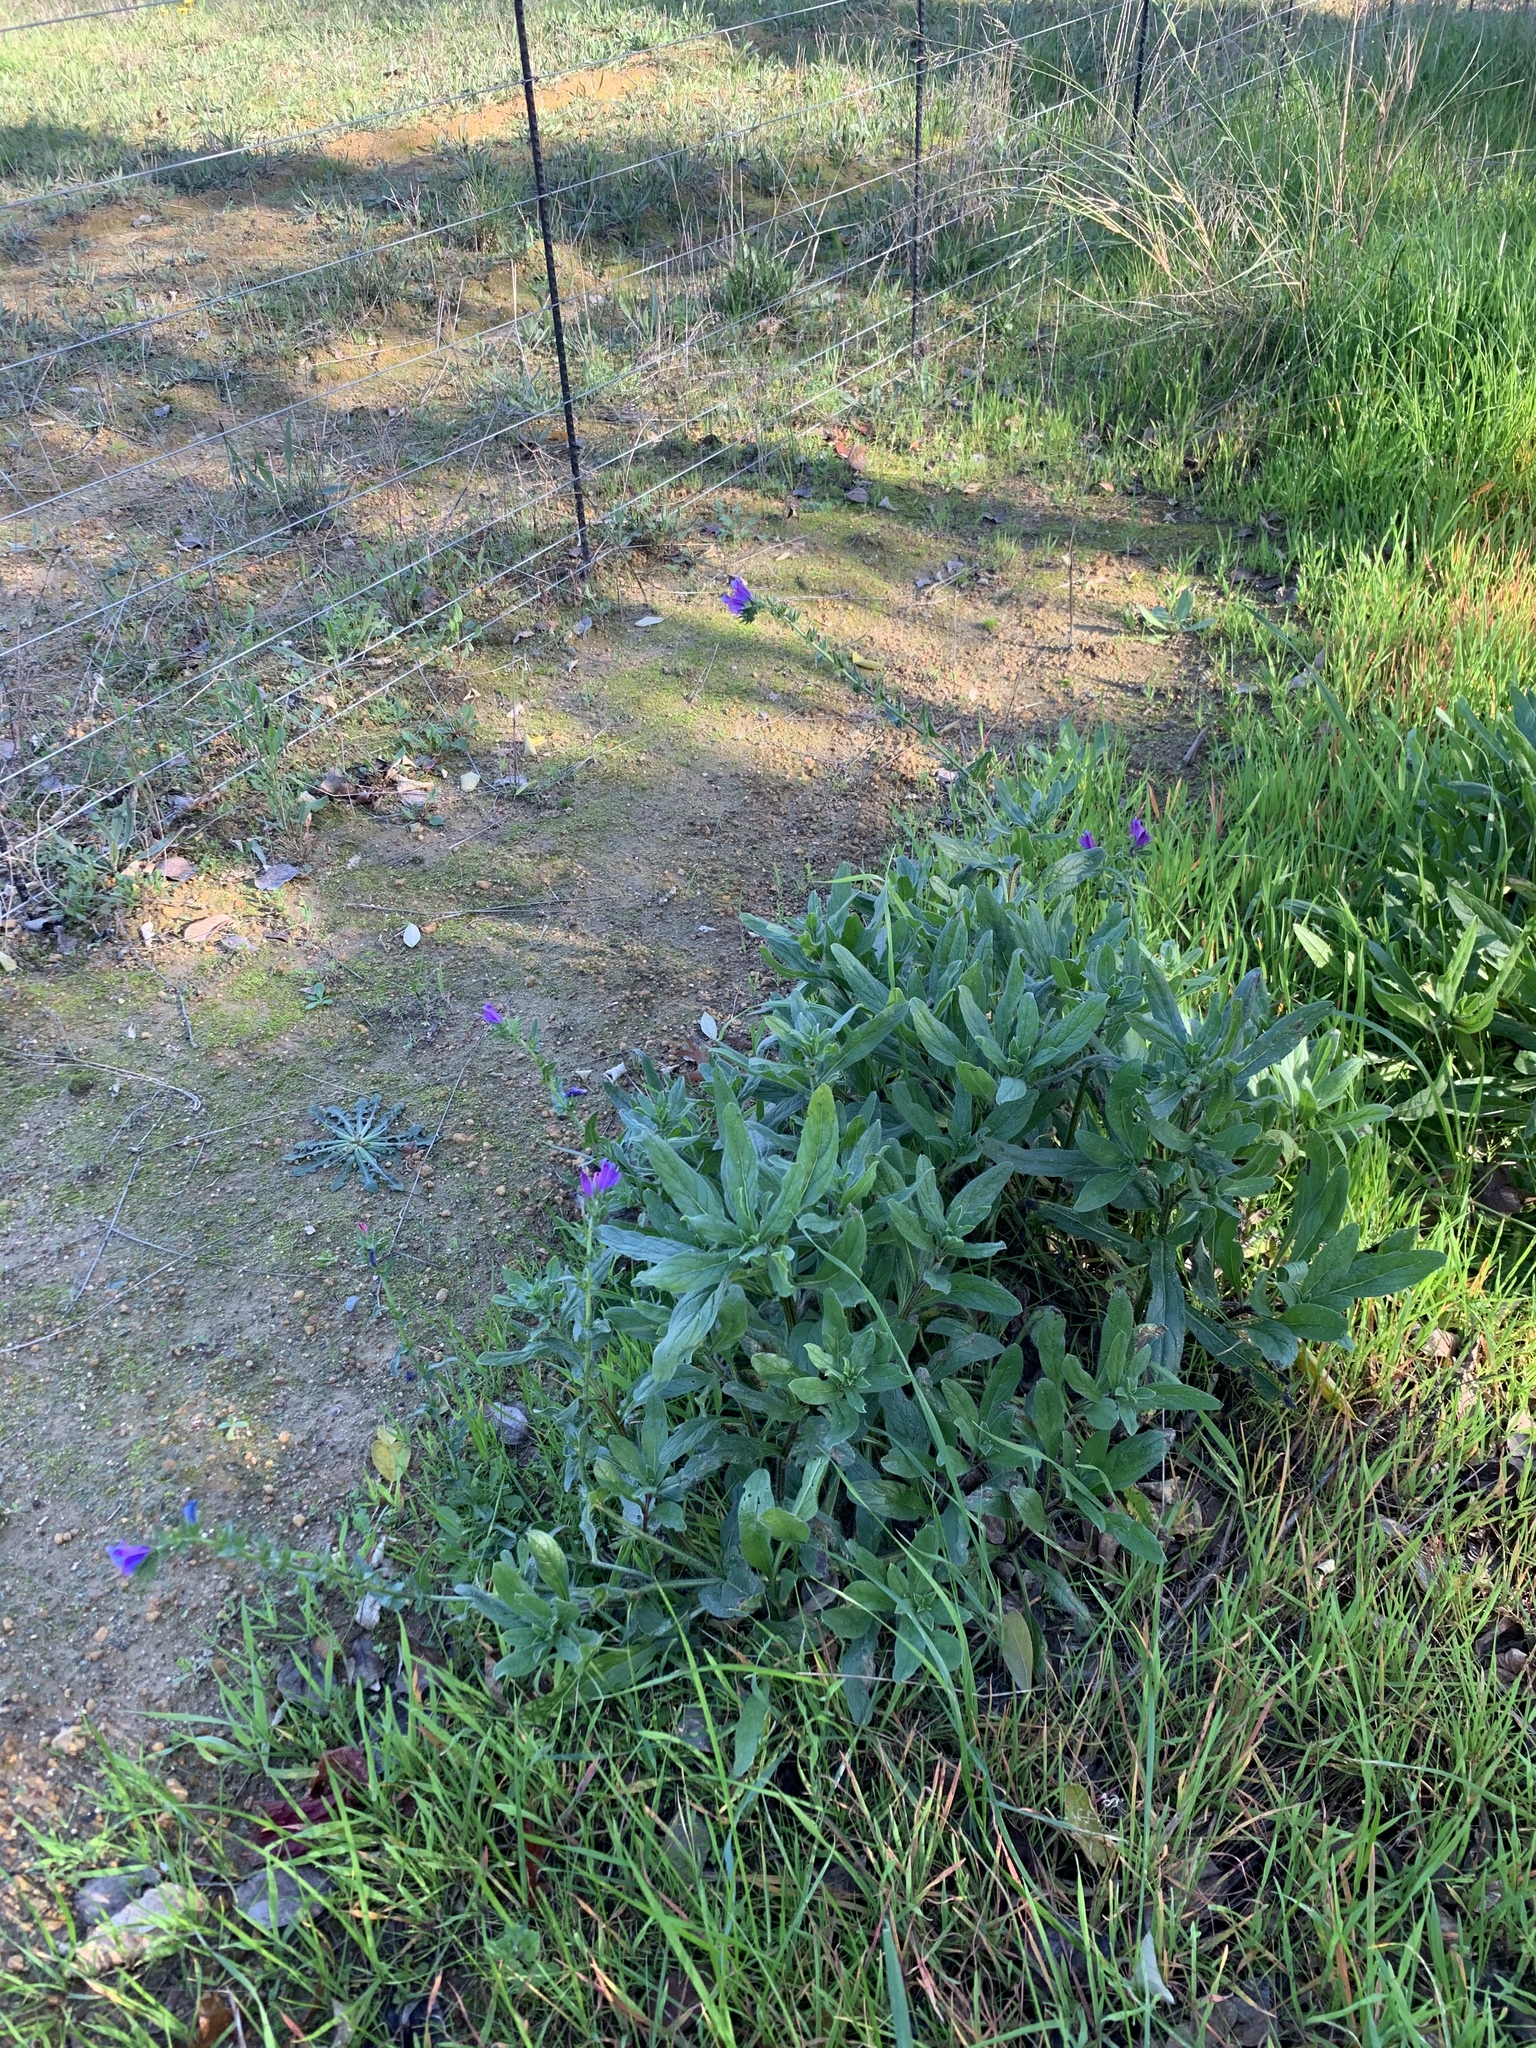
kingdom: Plantae
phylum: Tracheophyta
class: Magnoliopsida
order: Boraginales
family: Boraginaceae
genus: Echium
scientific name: Echium plantagineum
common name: Purple viper's-bugloss
